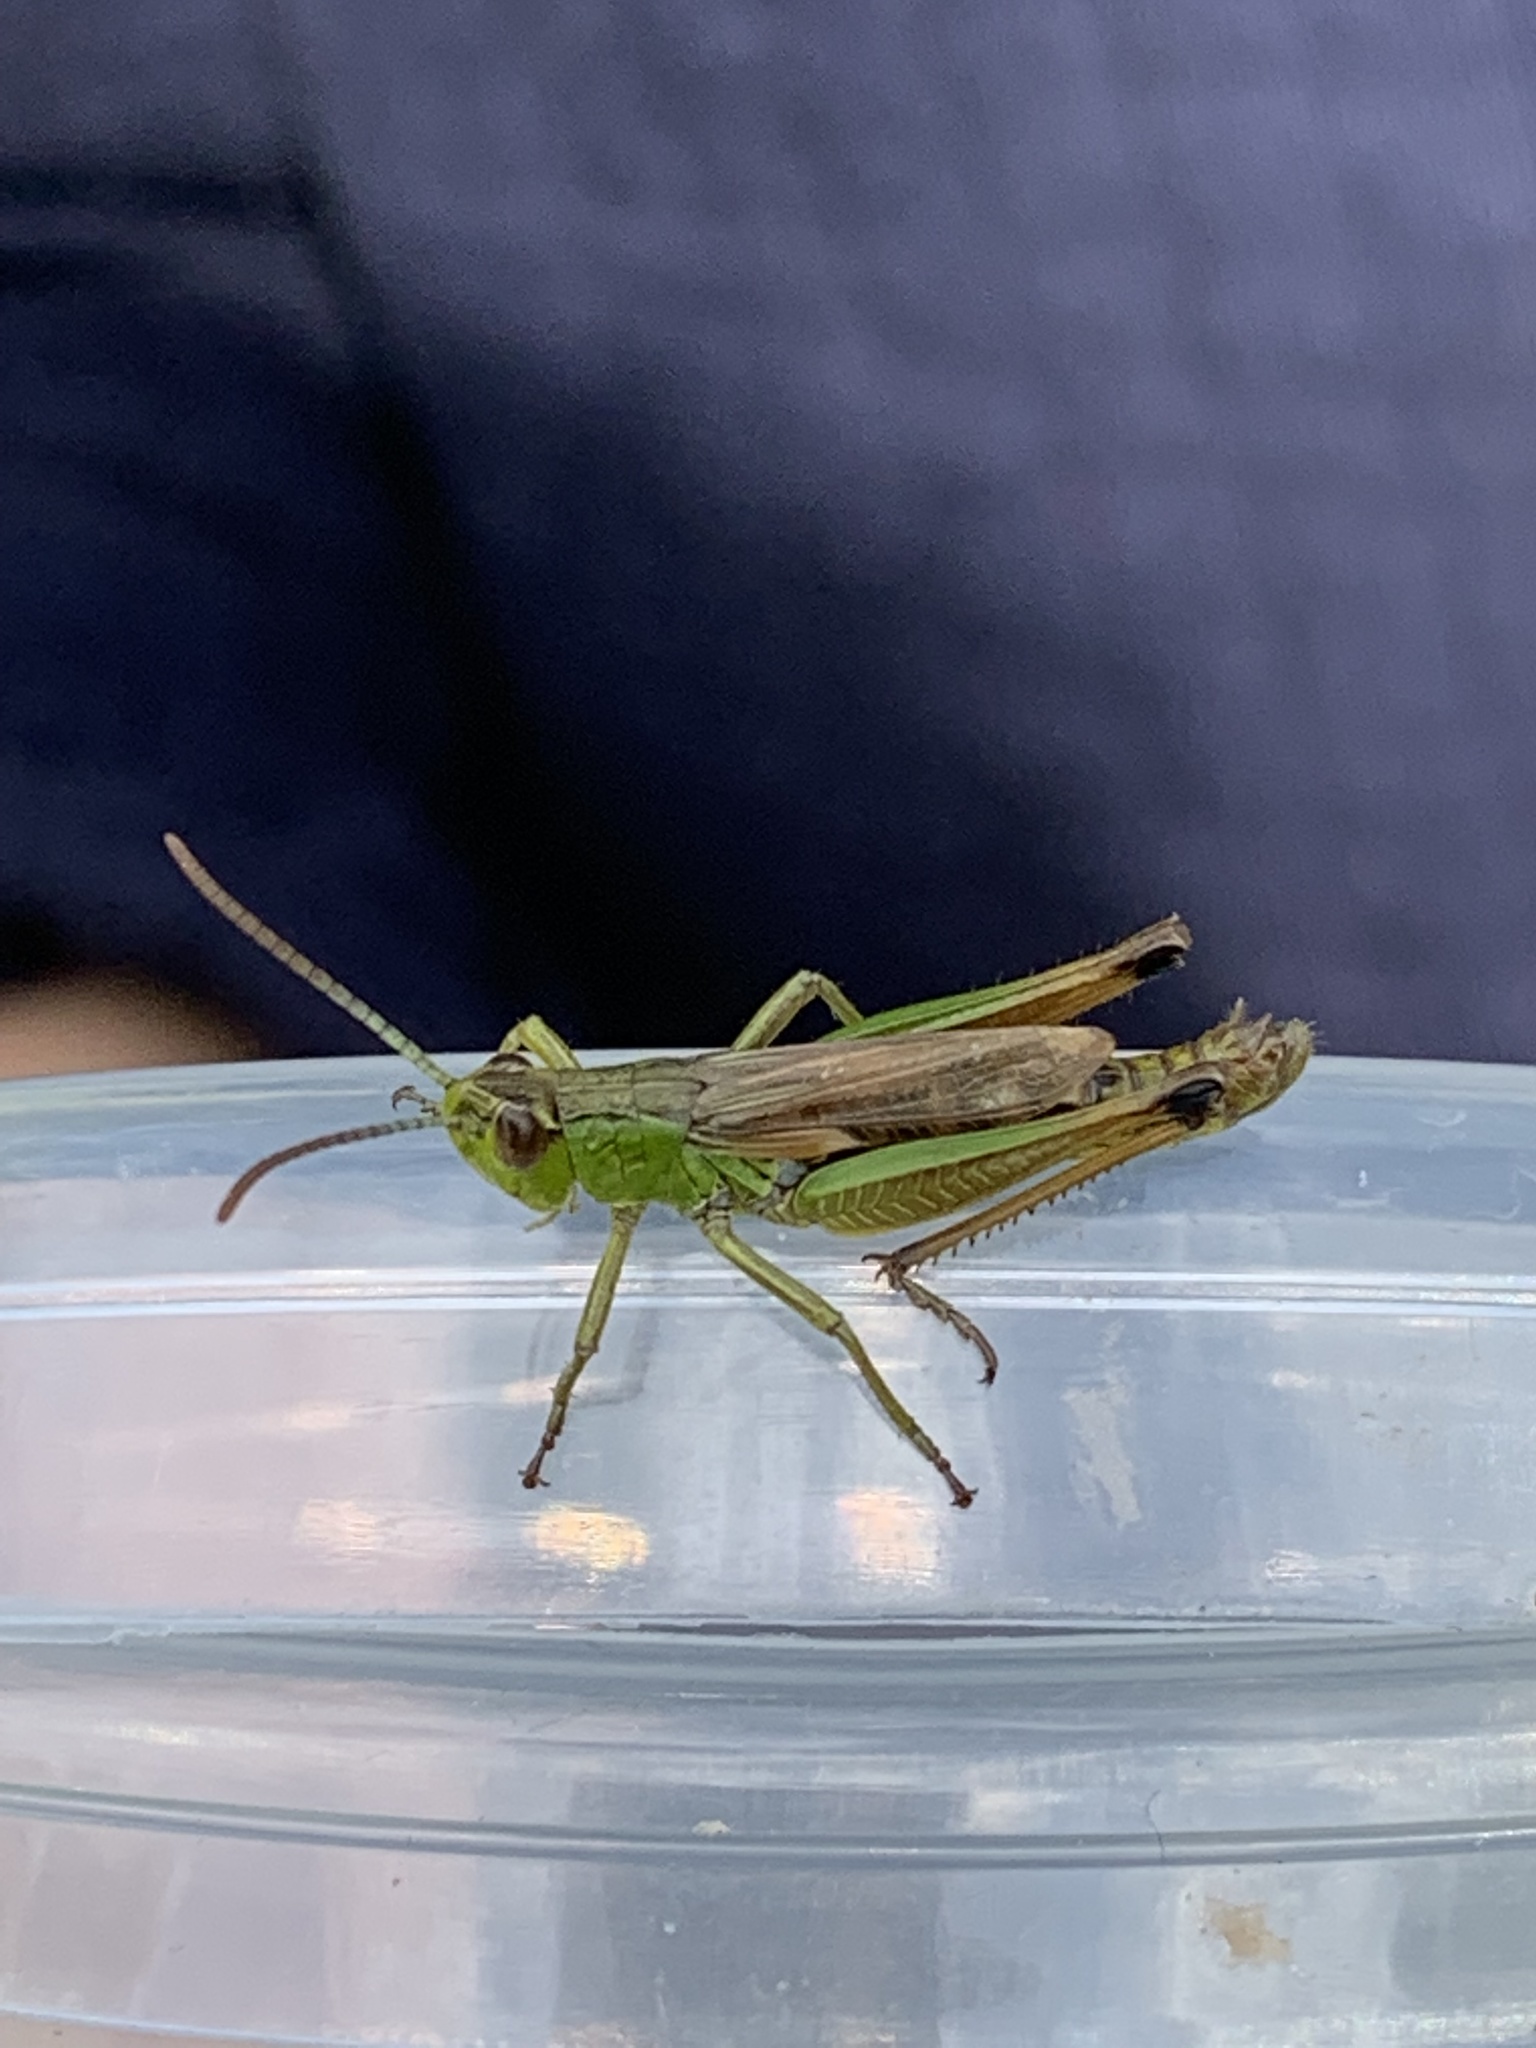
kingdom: Animalia
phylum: Arthropoda
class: Insecta
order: Orthoptera
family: Acrididae
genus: Pseudochorthippus
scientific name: Pseudochorthippus parallelus
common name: Meadow grasshopper
